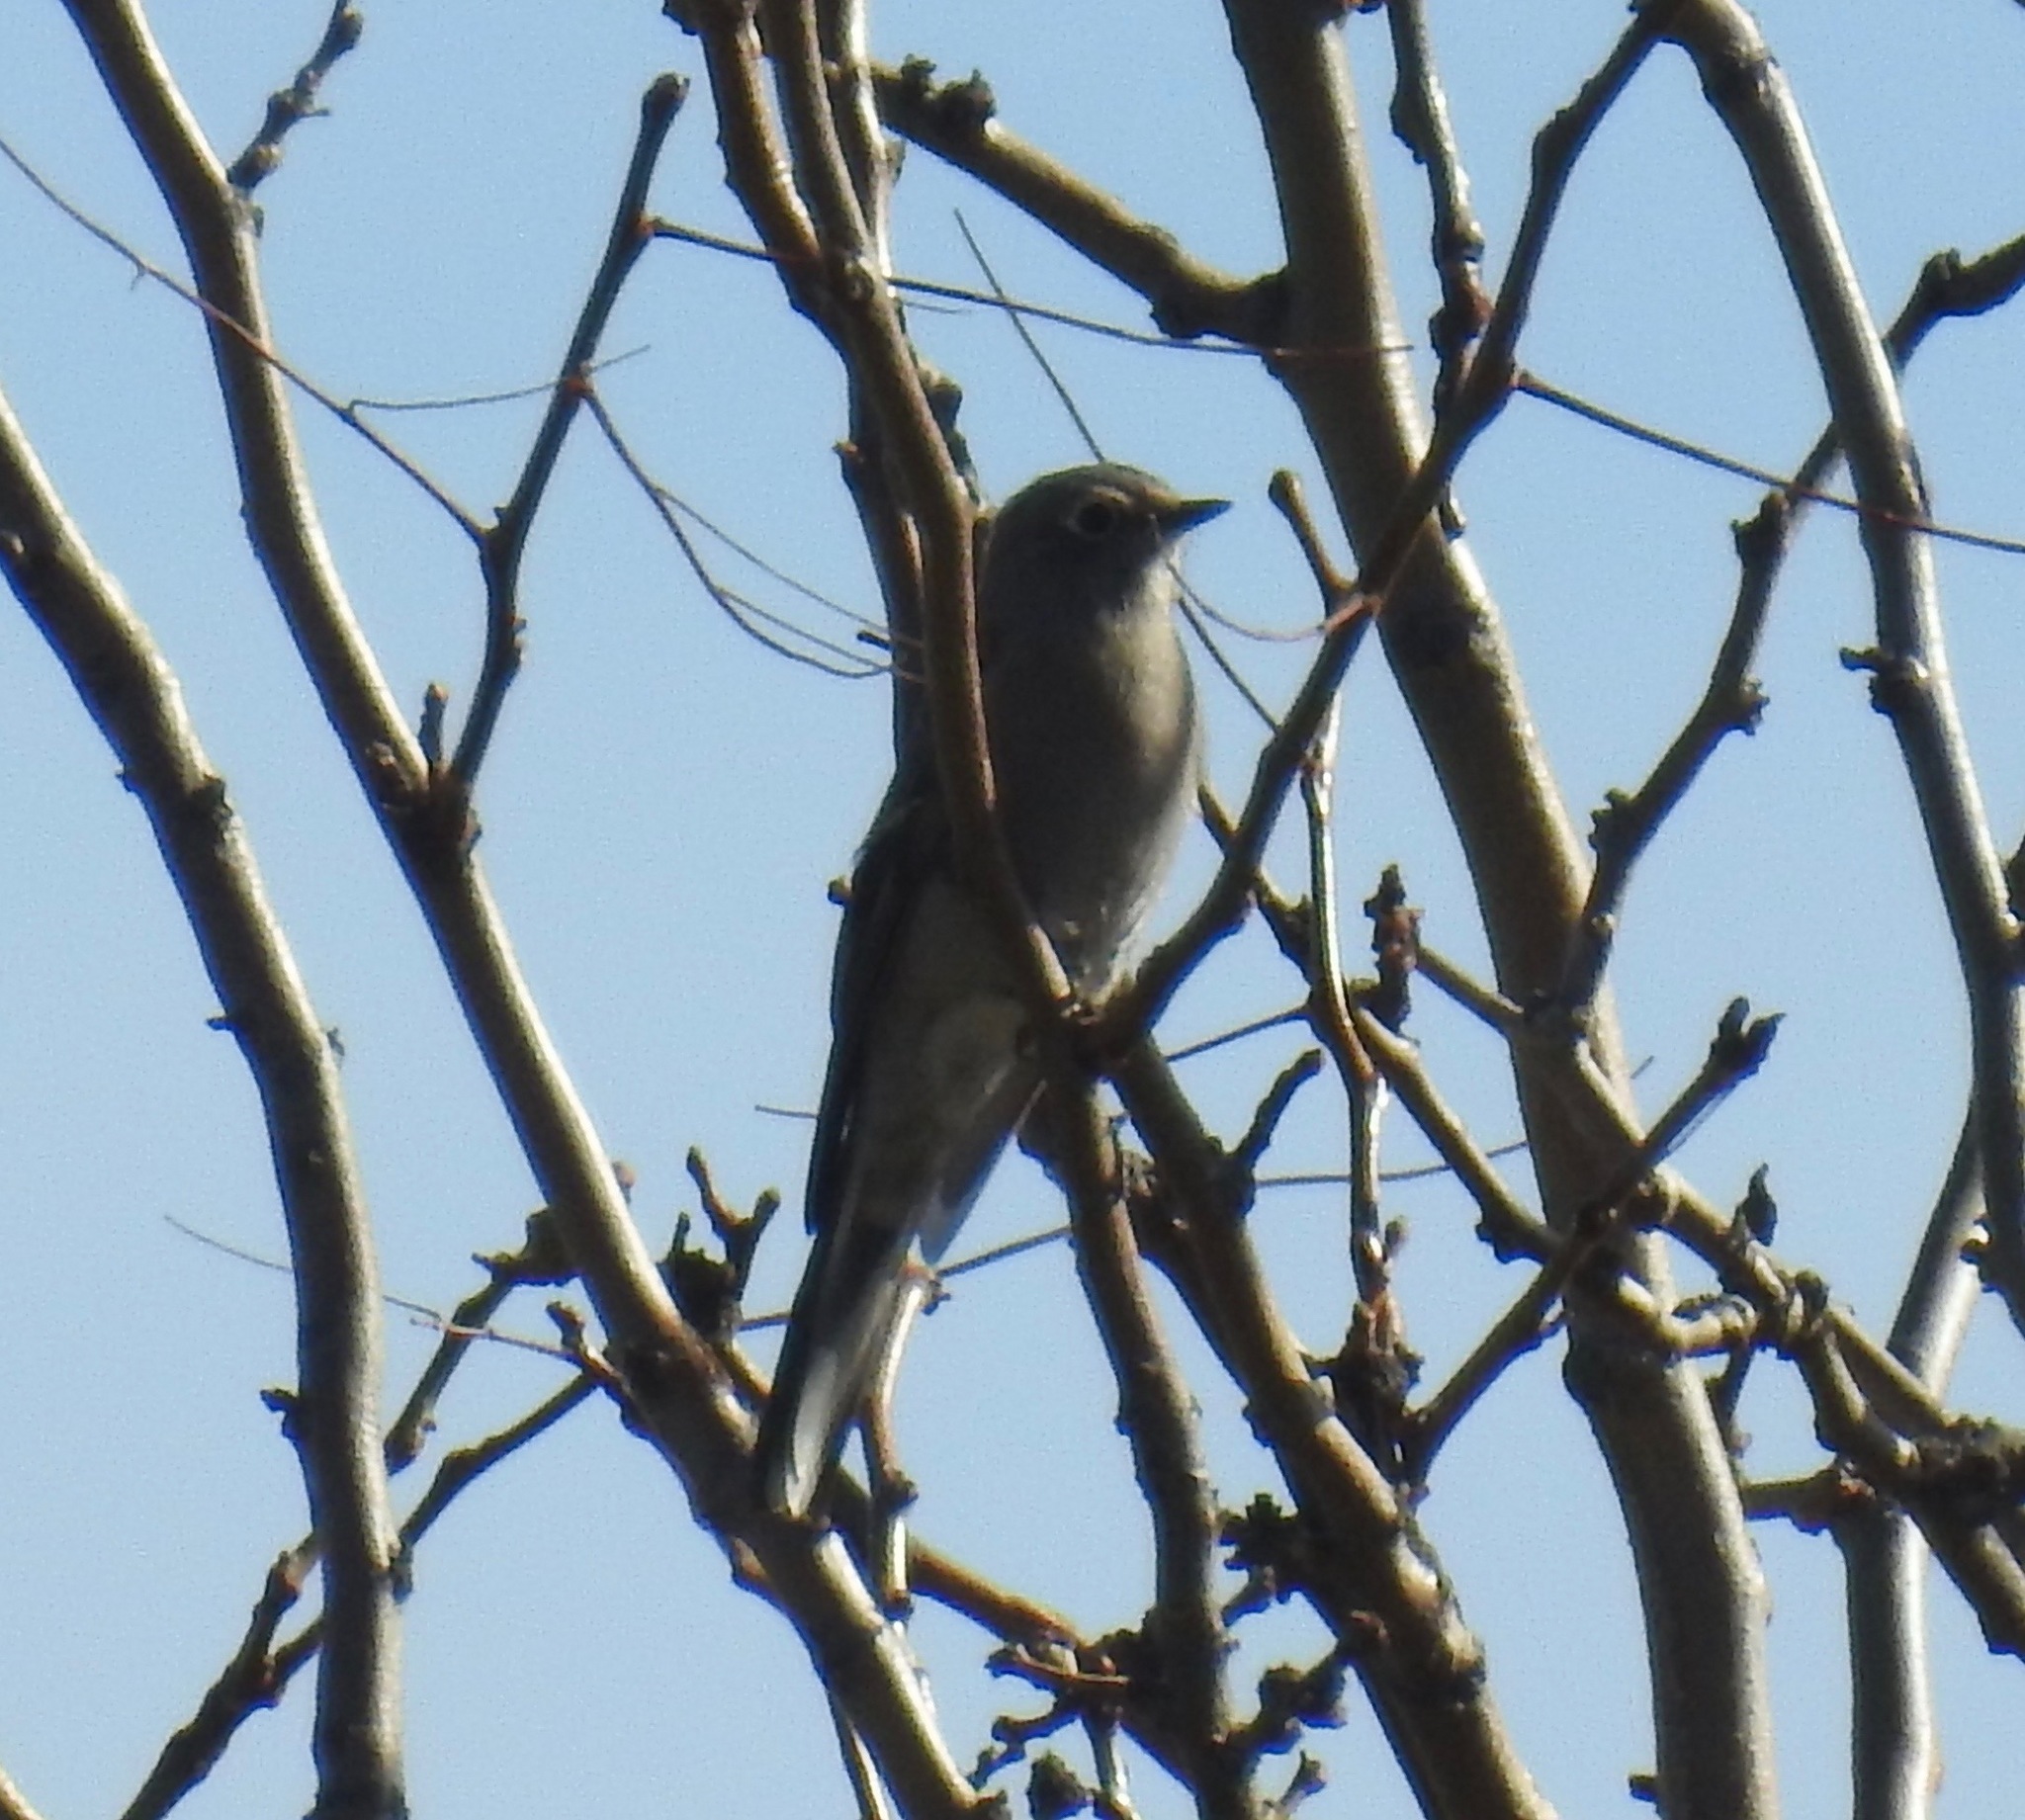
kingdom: Animalia
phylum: Chordata
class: Aves
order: Passeriformes
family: Turdidae
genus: Myadestes
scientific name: Myadestes townsendi
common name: Townsend's solitaire
